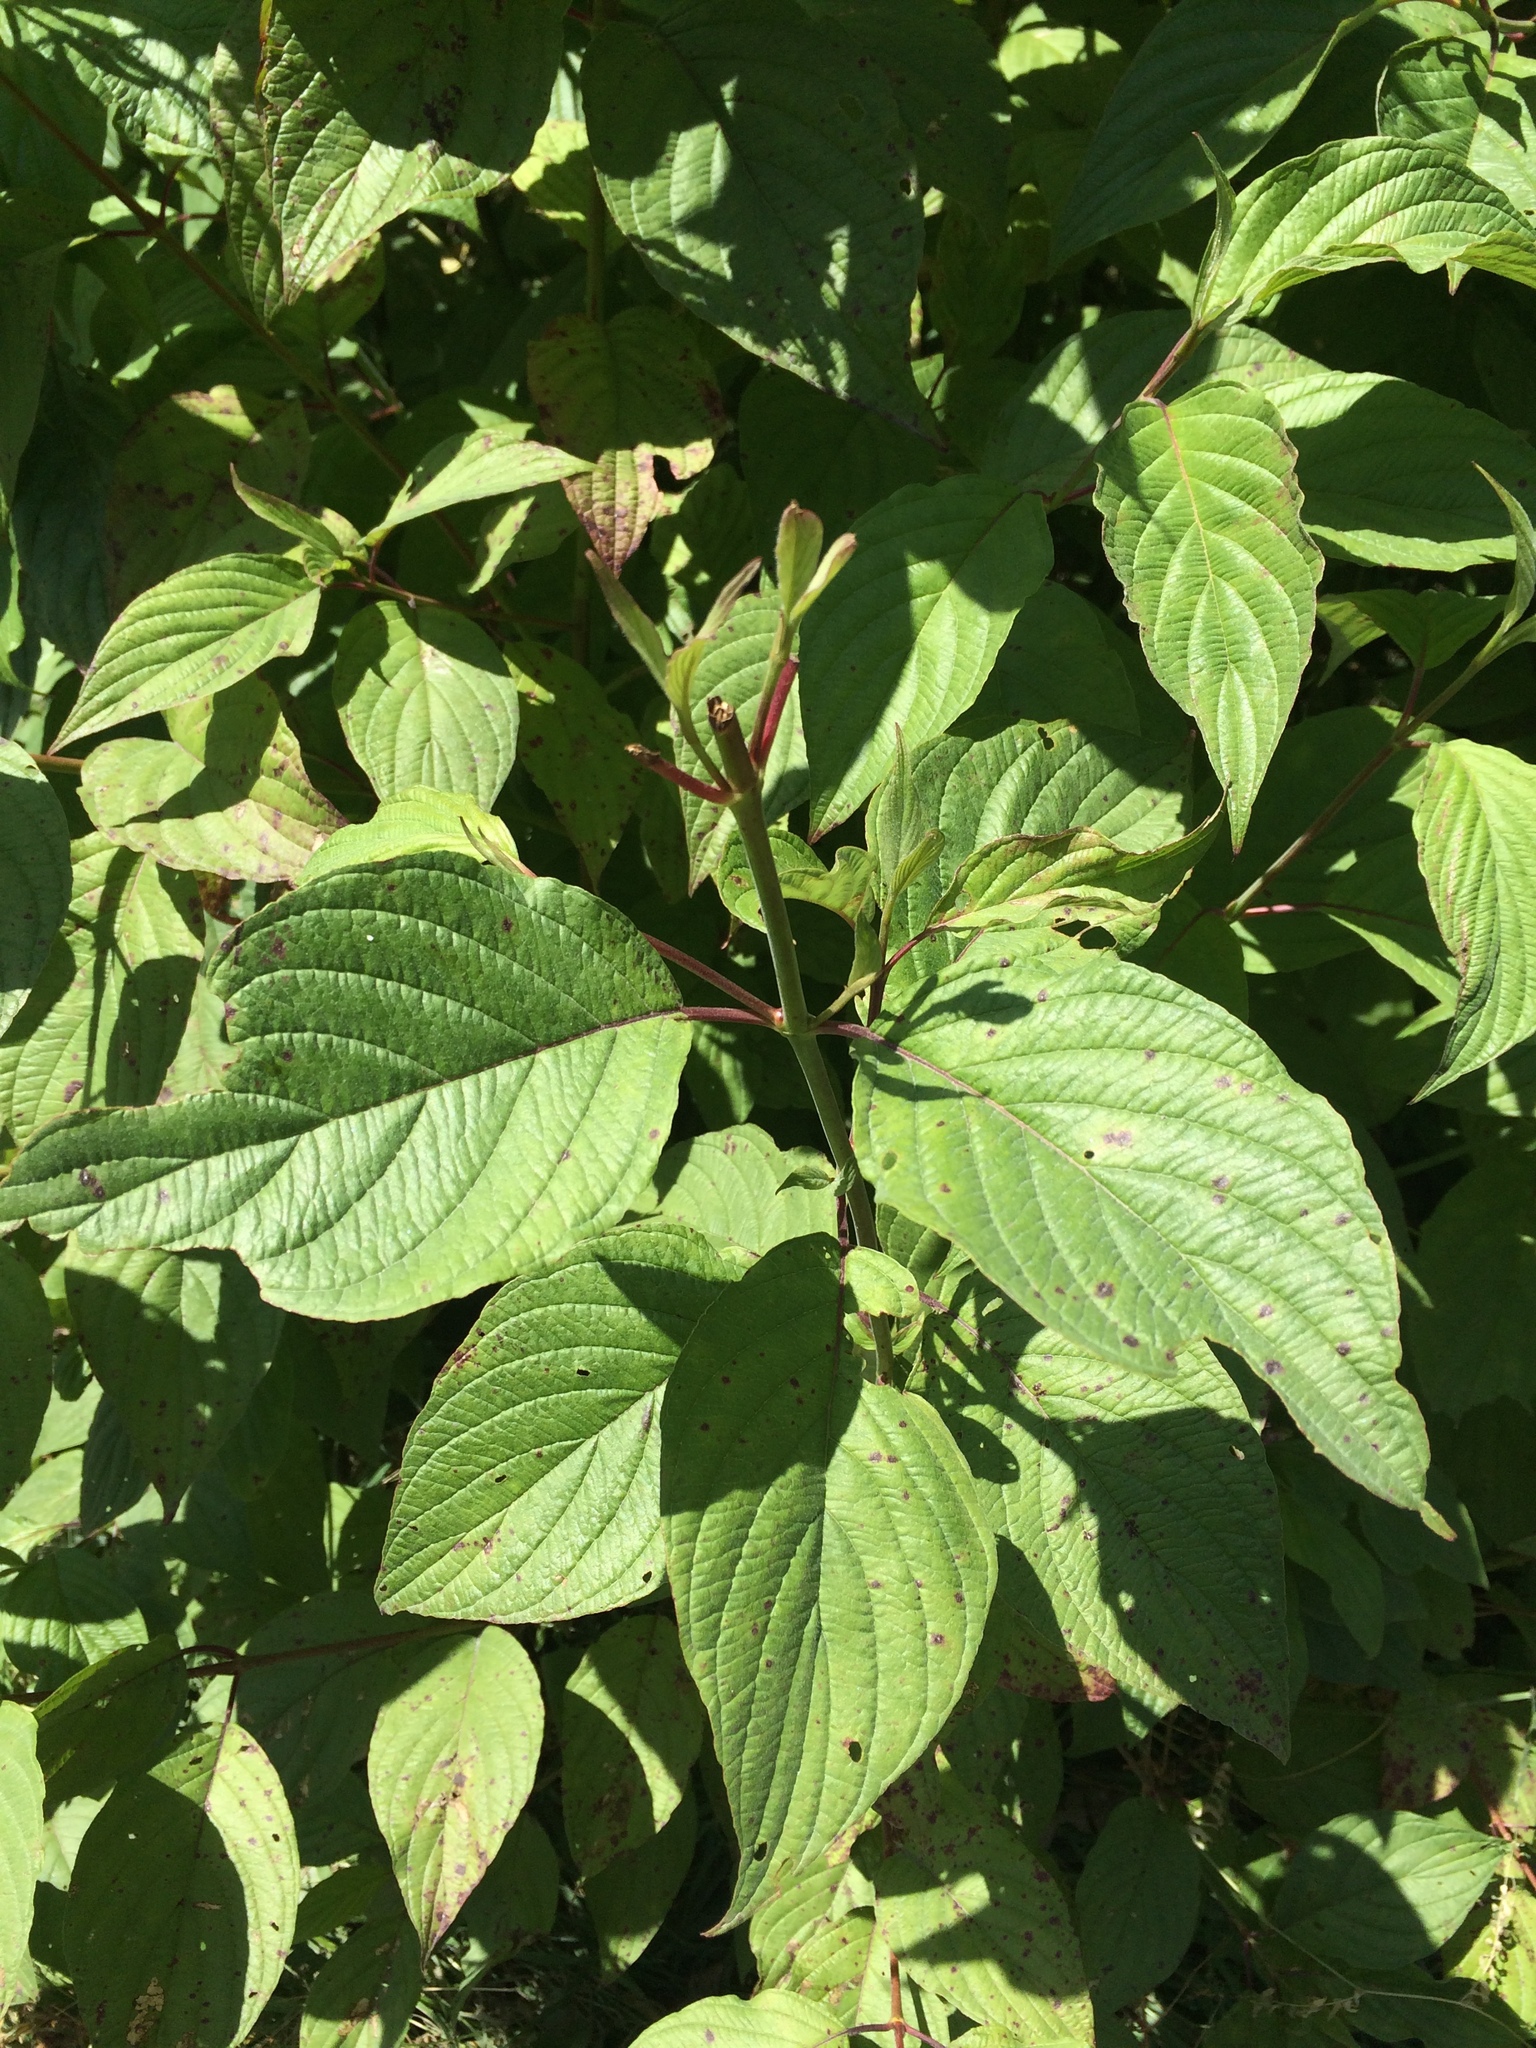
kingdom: Plantae
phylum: Tracheophyta
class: Magnoliopsida
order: Cornales
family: Cornaceae
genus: Cornus
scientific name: Cornus sericea
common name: Red-osier dogwood
